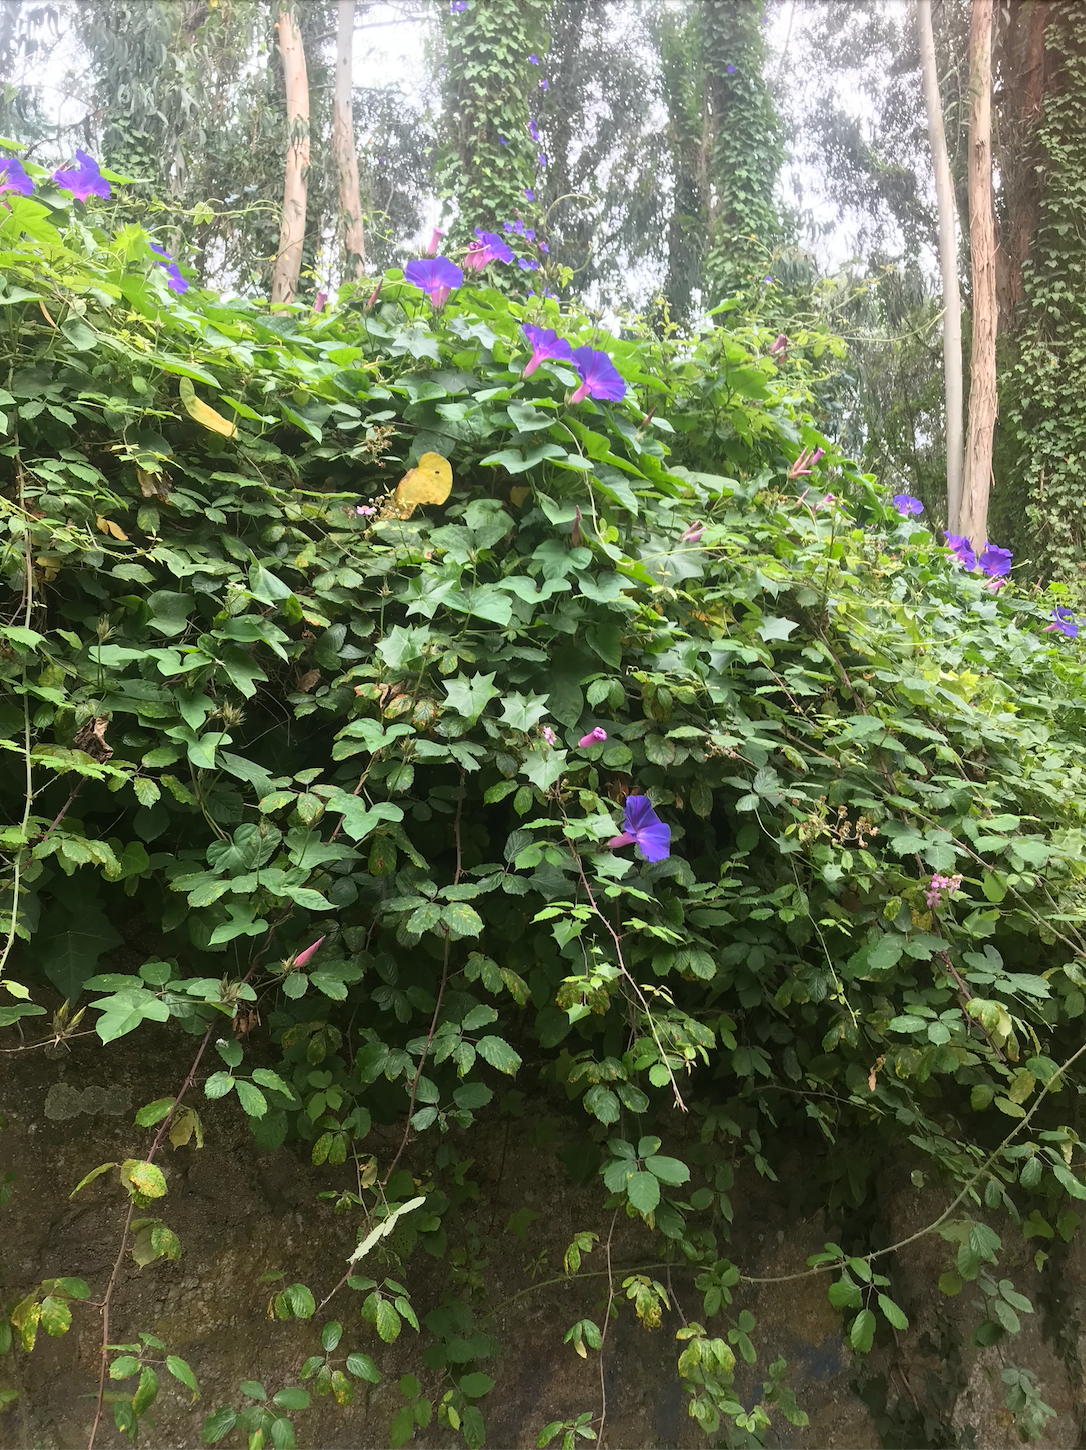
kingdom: Plantae
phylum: Tracheophyta
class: Magnoliopsida
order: Solanales
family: Convolvulaceae
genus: Ipomoea
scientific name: Ipomoea indica
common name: Blue dawnflower
